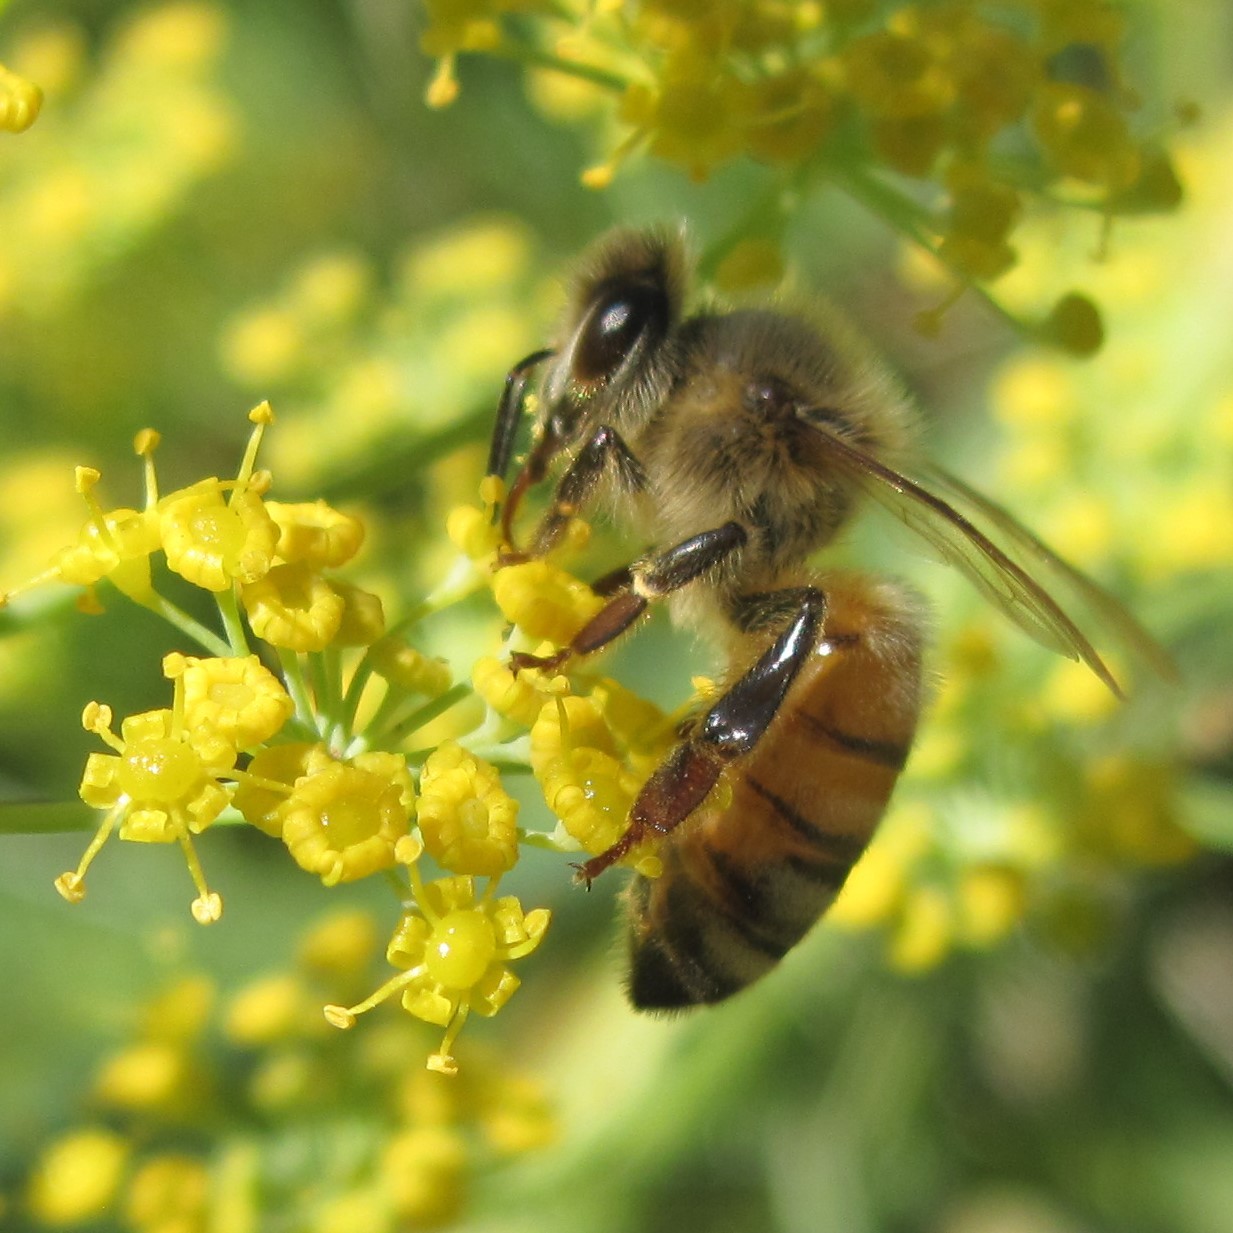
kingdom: Animalia
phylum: Arthropoda
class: Insecta
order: Hymenoptera
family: Apidae
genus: Apis
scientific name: Apis mellifera
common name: Honey bee
